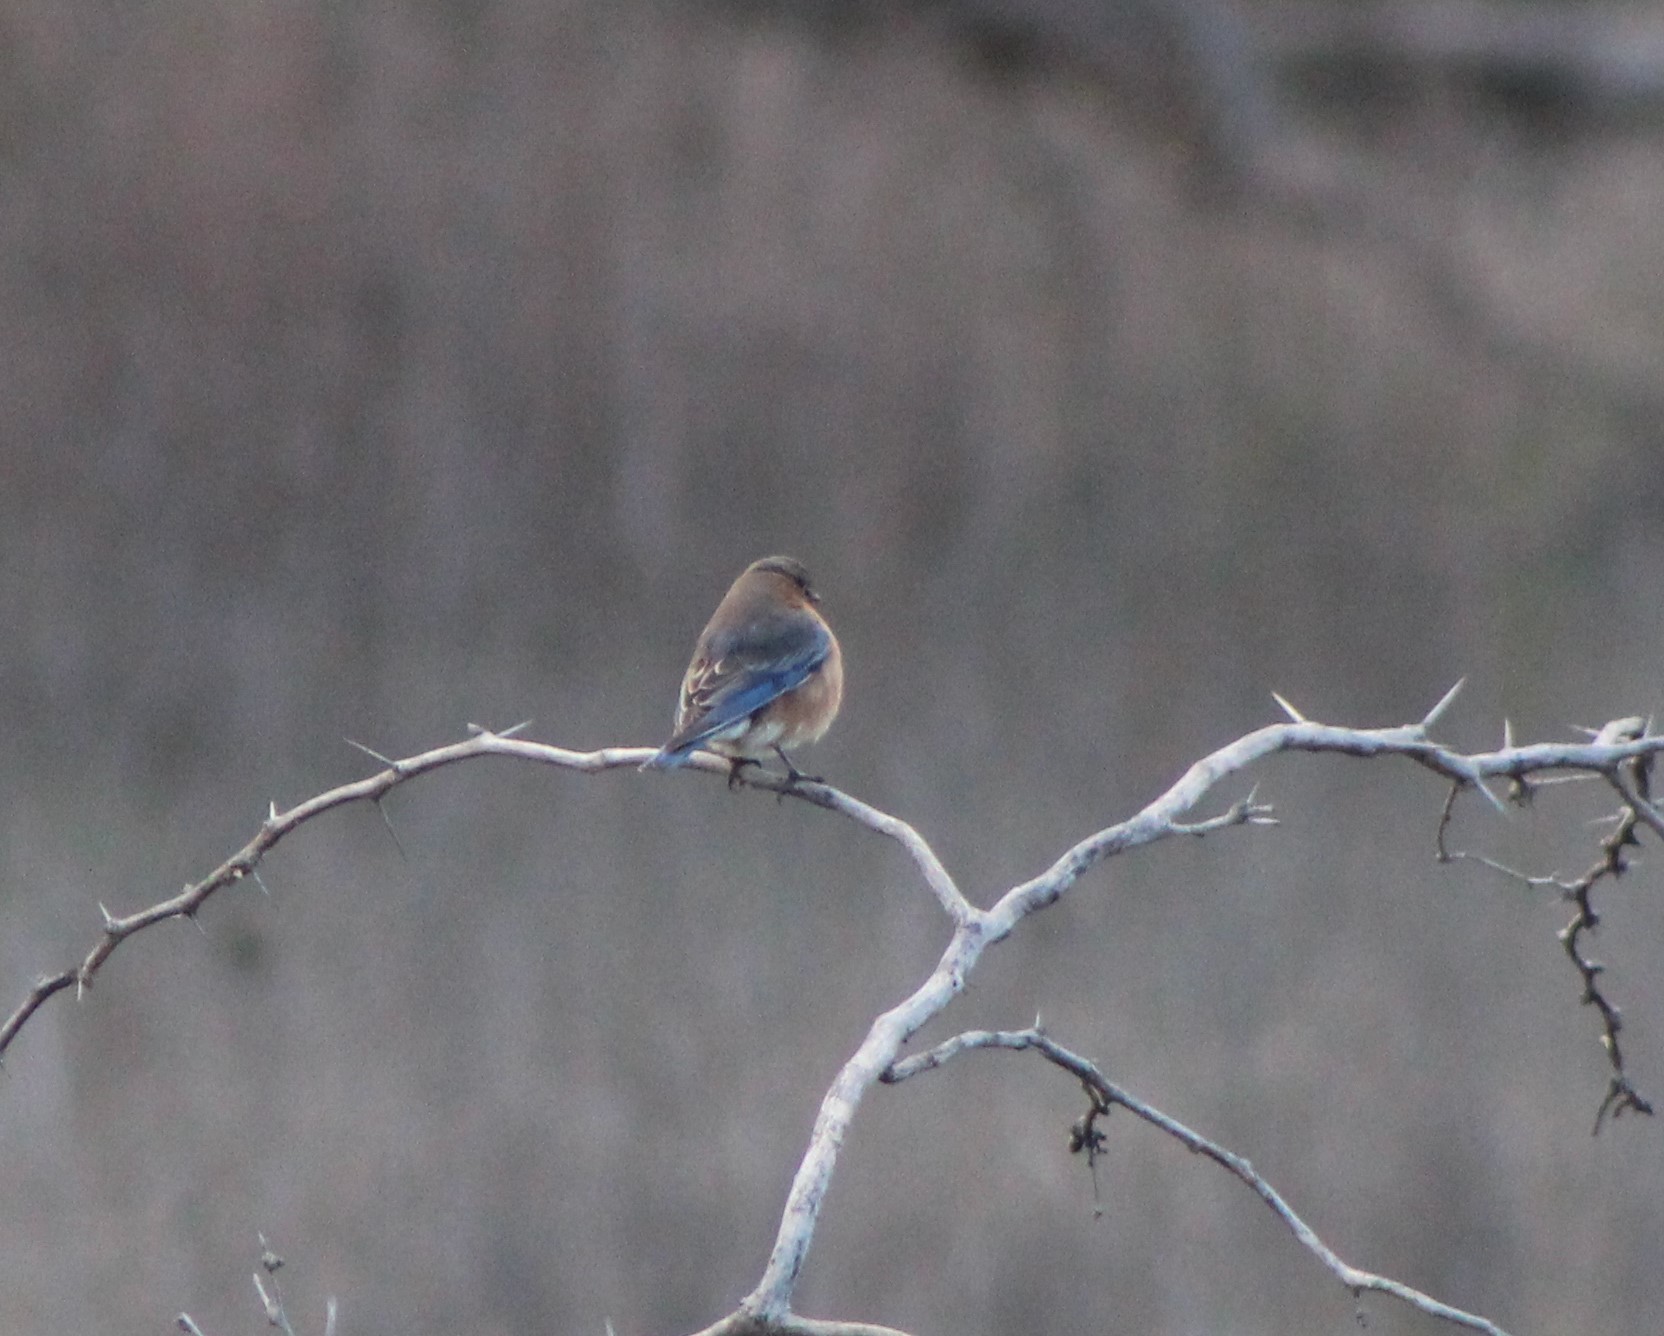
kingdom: Animalia
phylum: Chordata
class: Aves
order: Passeriformes
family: Turdidae
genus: Sialia
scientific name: Sialia sialis
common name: Eastern bluebird
